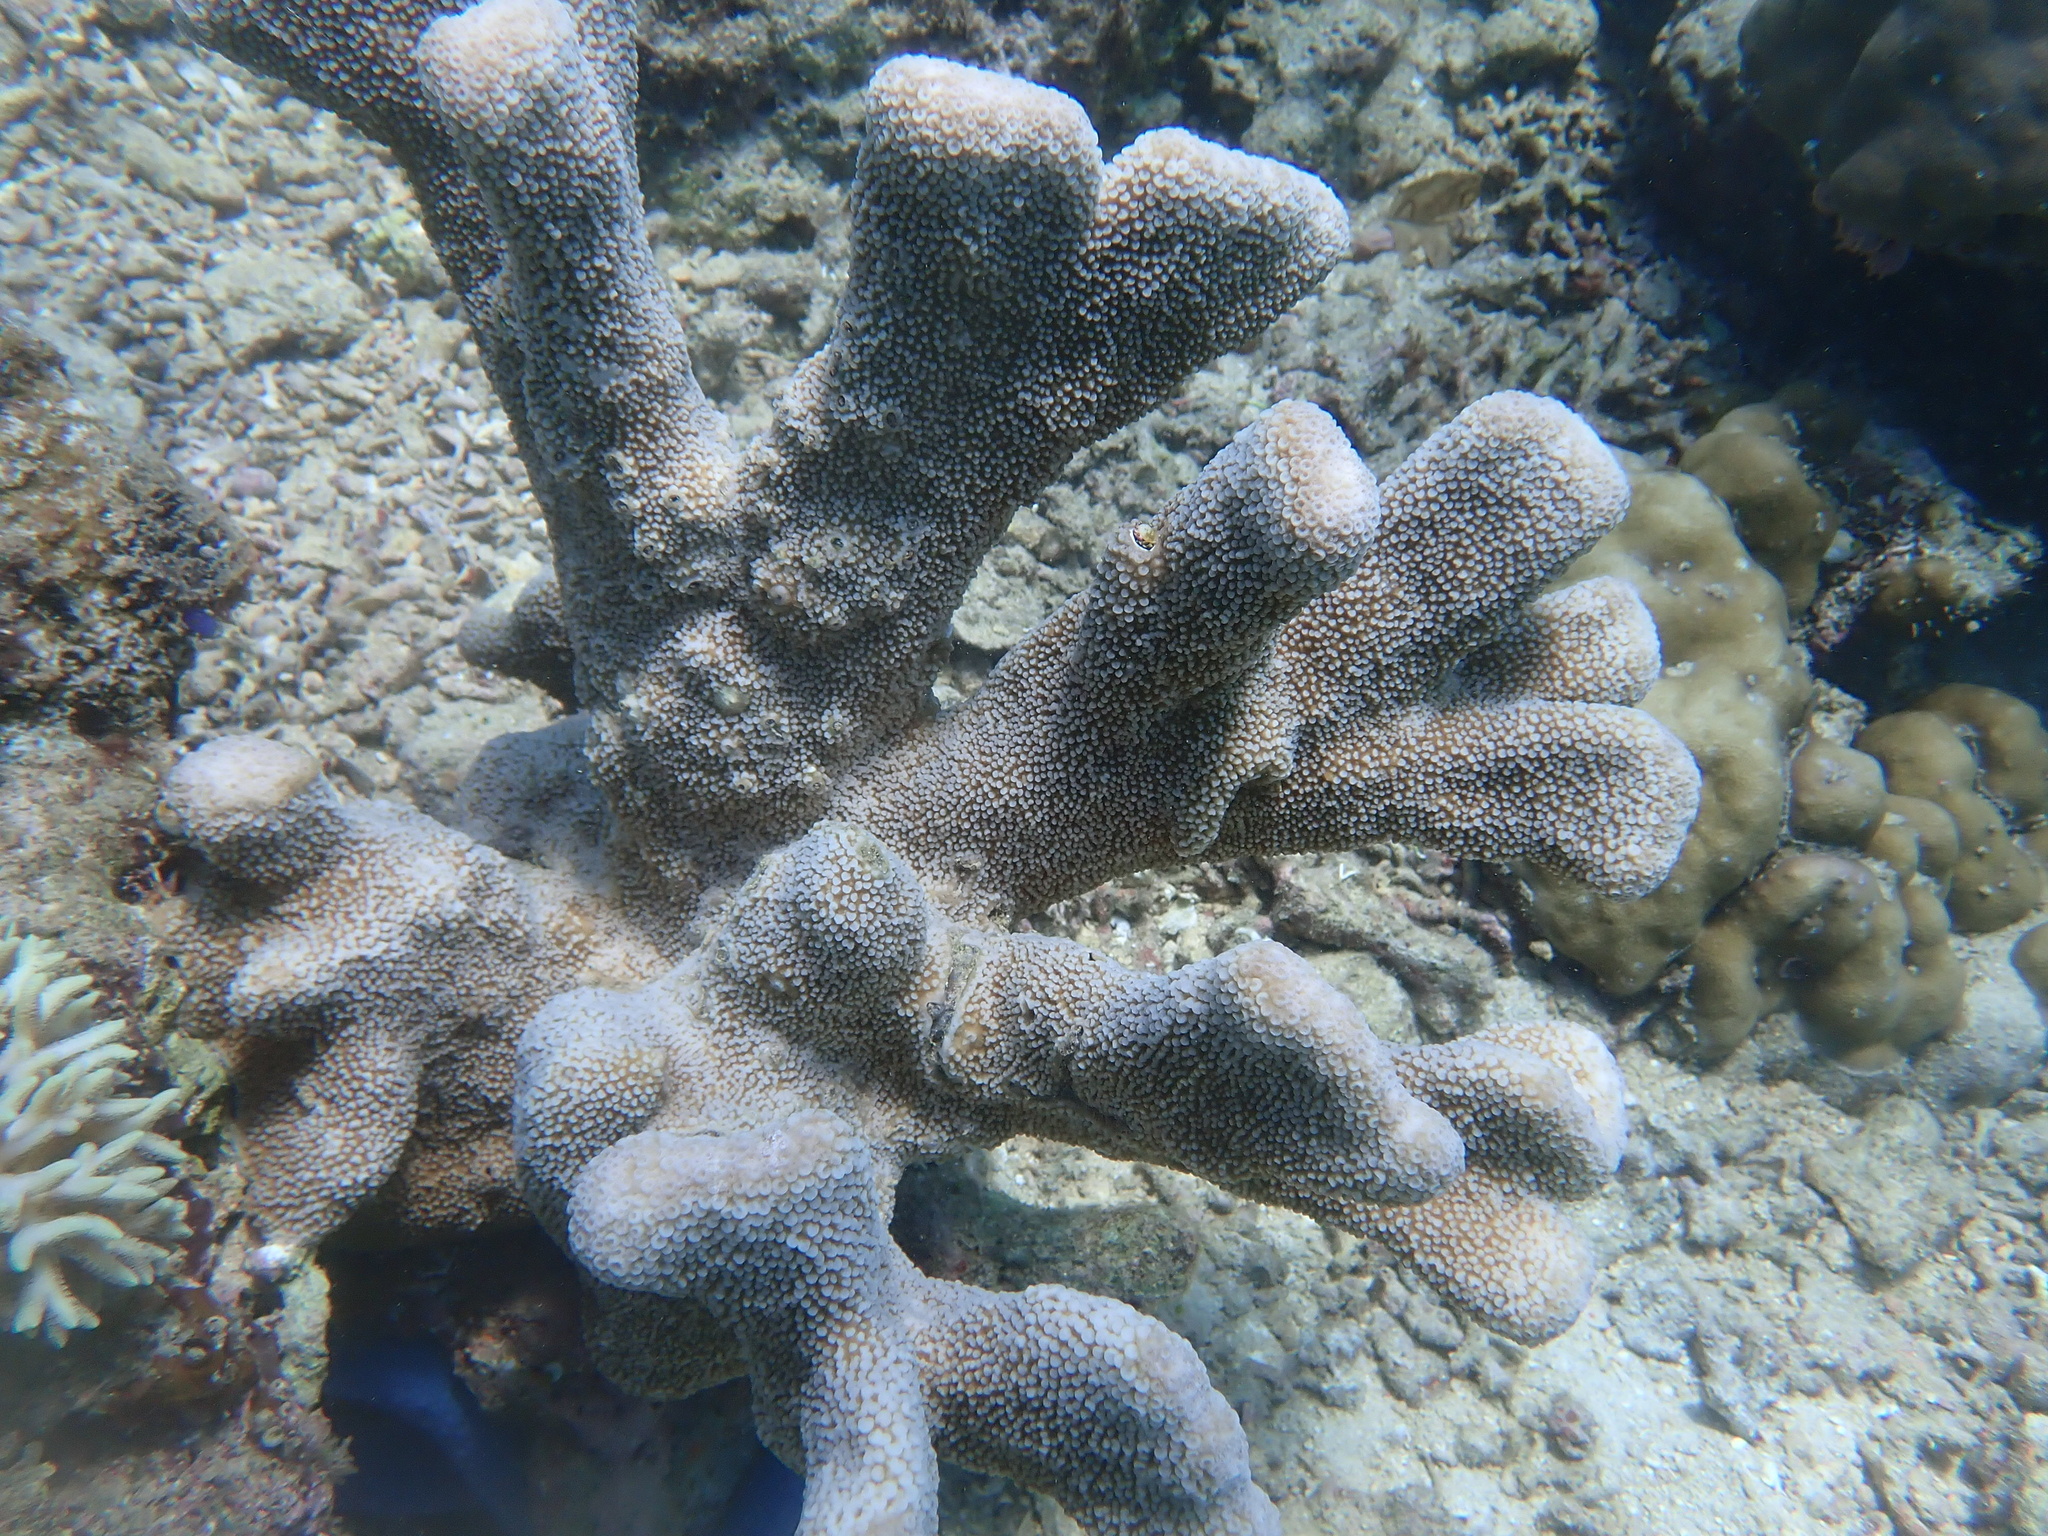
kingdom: Animalia
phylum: Cnidaria
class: Anthozoa
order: Scleractinia
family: Acroporidae
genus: Isopora
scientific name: Isopora palifera
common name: Catch bowl coral
